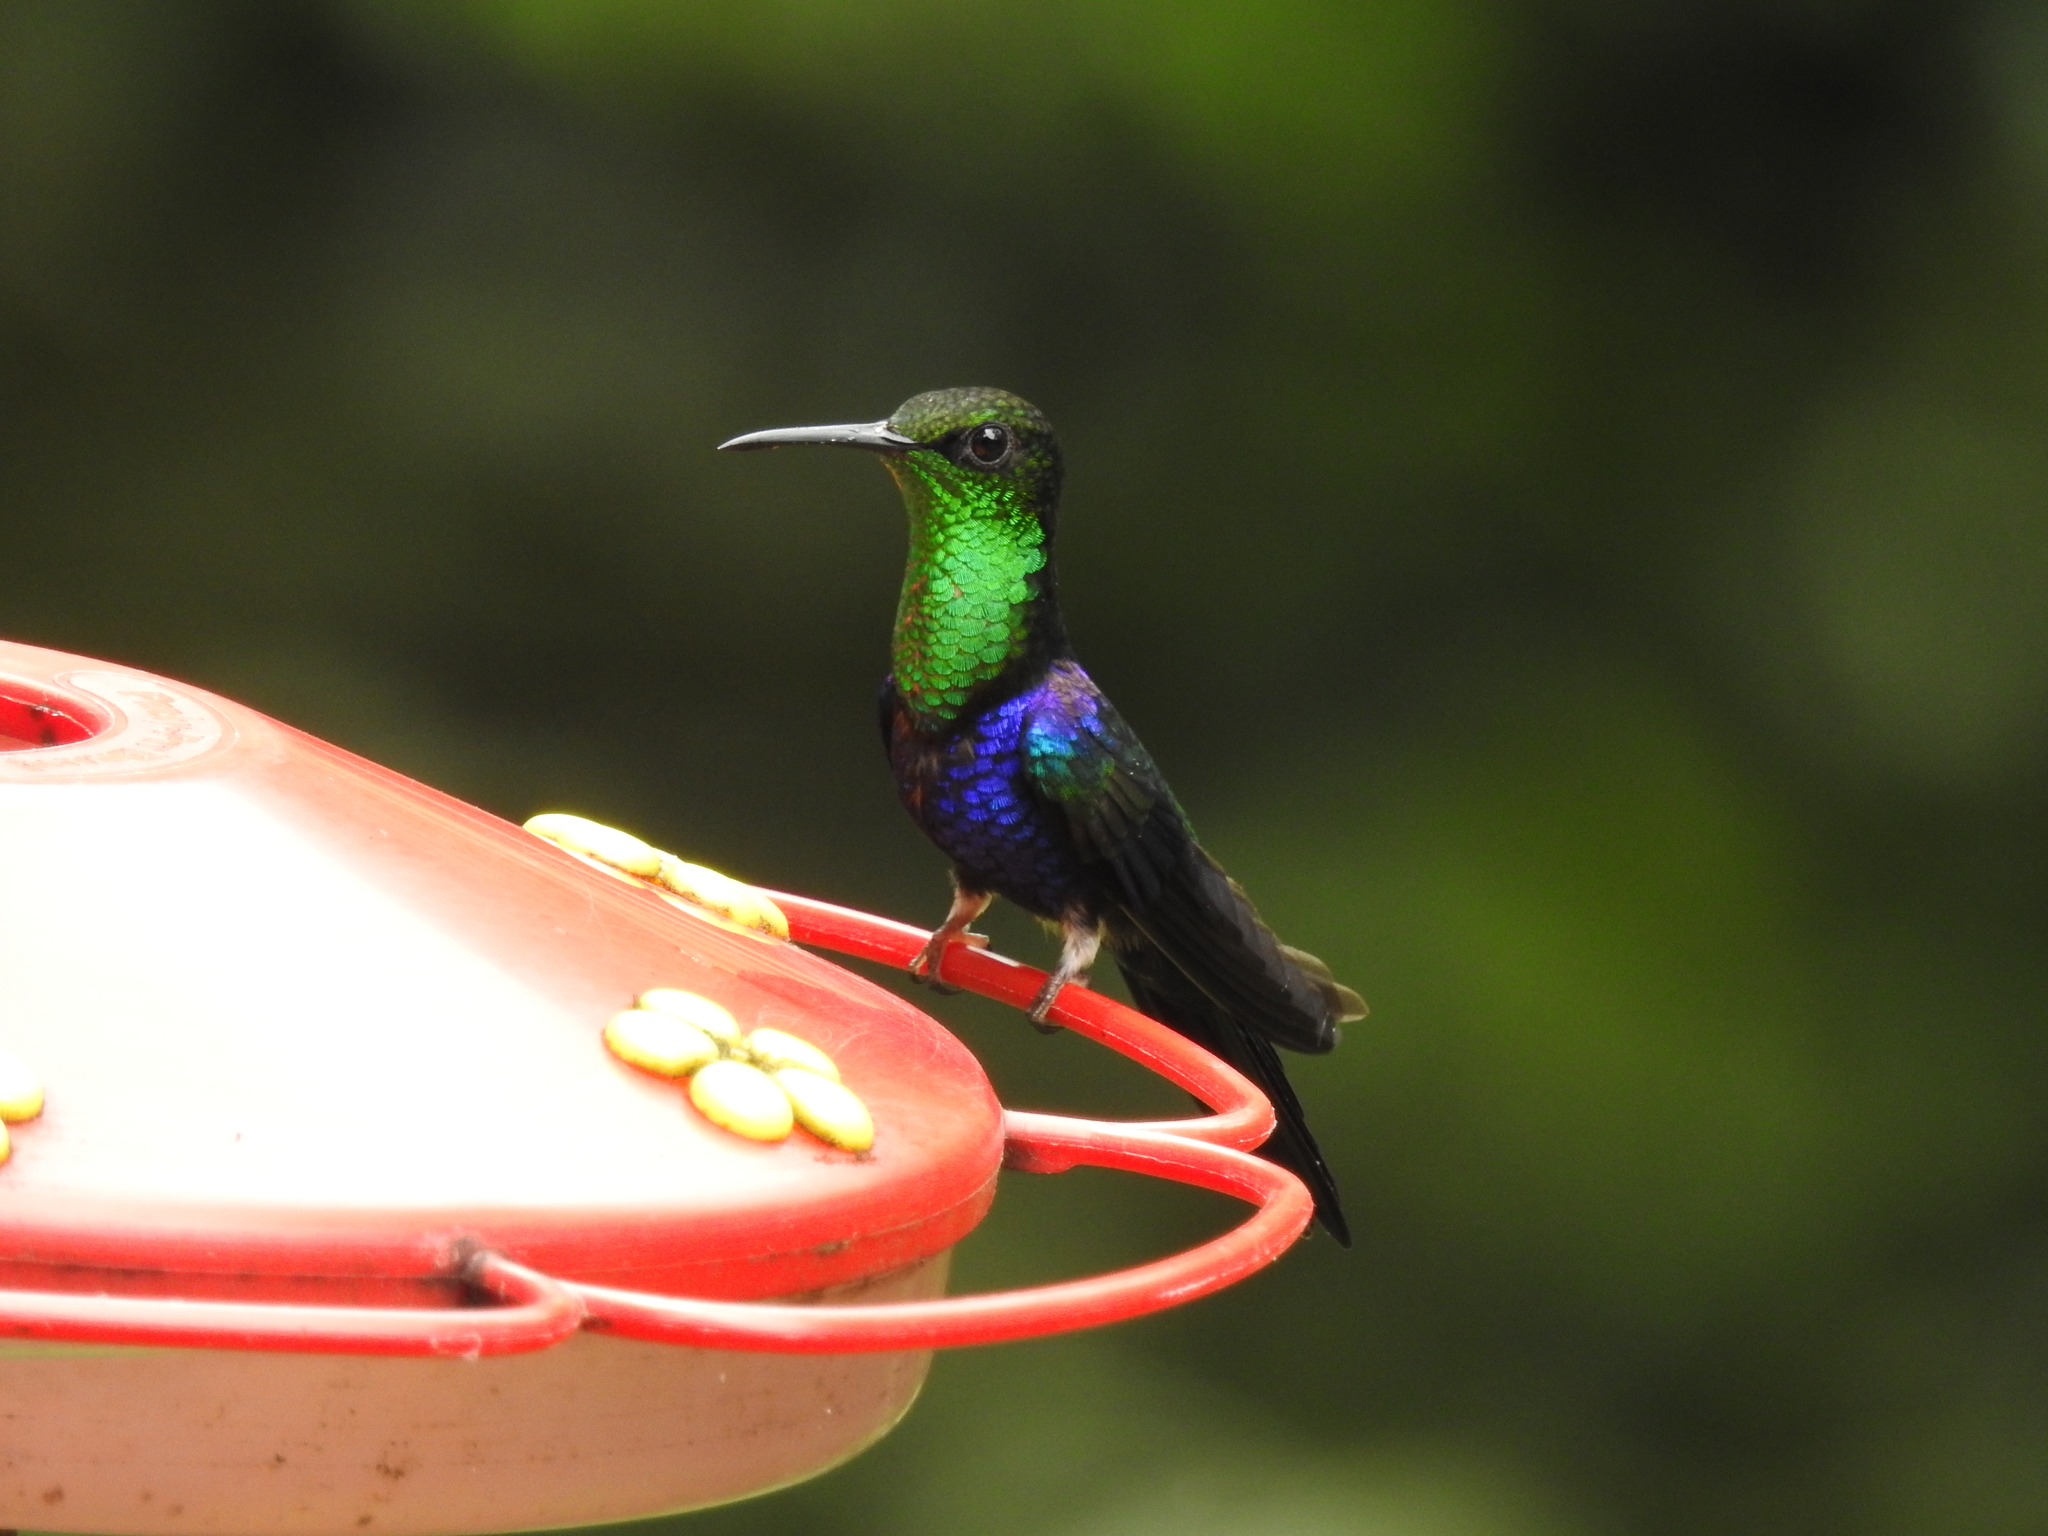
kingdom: Animalia
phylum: Chordata
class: Aves
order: Apodiformes
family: Trochilidae
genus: Thalurania
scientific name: Thalurania furcata
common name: Fork-tailed woodnymph
